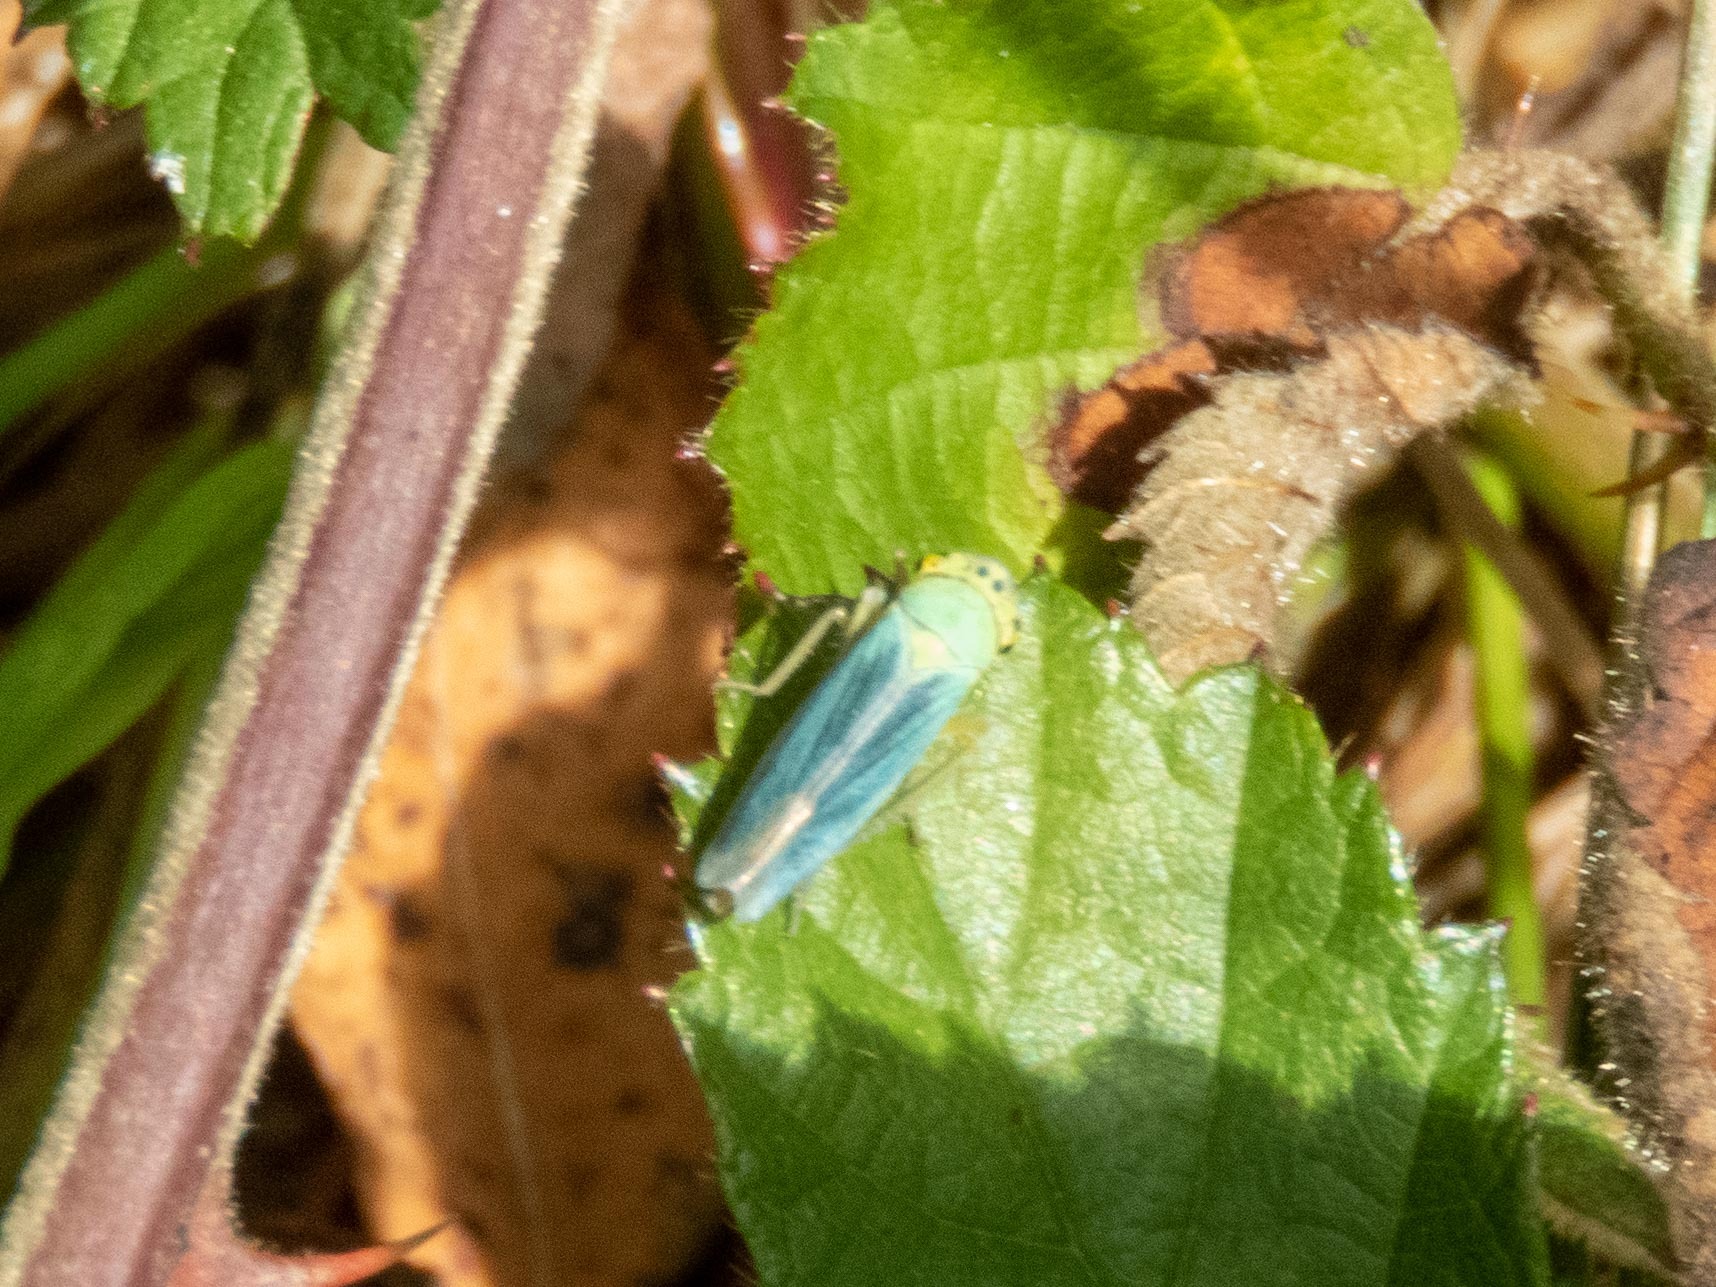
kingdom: Animalia
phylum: Arthropoda
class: Insecta
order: Hemiptera
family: Cicadellidae
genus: Cicadella
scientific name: Cicadella viridis
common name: Leafhopper
